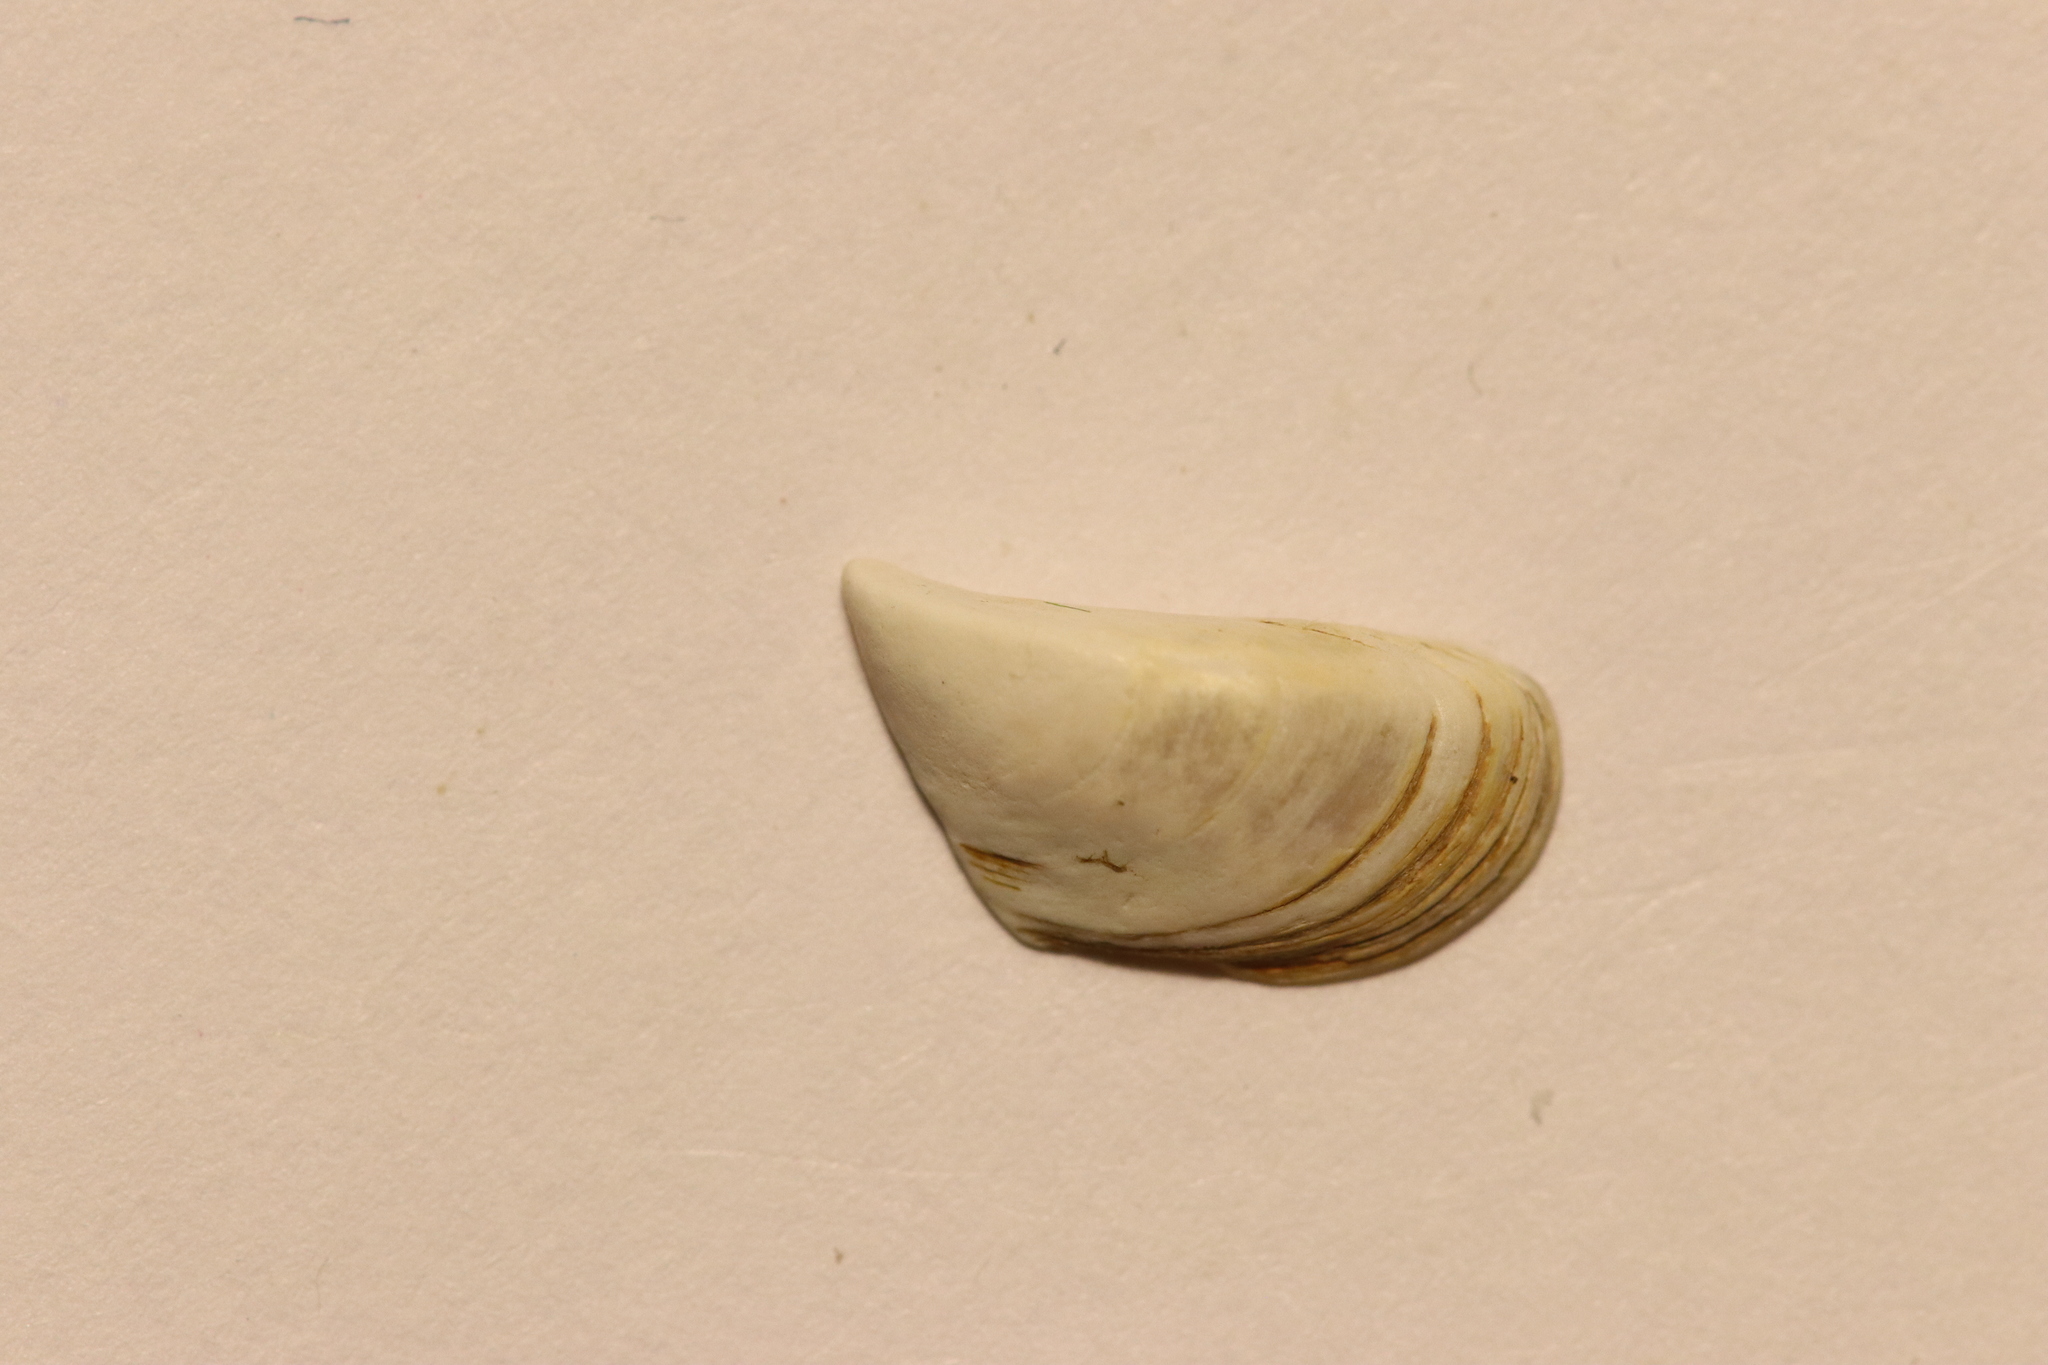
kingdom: Animalia
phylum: Mollusca
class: Bivalvia
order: Myida
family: Dreissenidae
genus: Dreissena
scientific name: Dreissena polymorpha
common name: Zebra mussel
